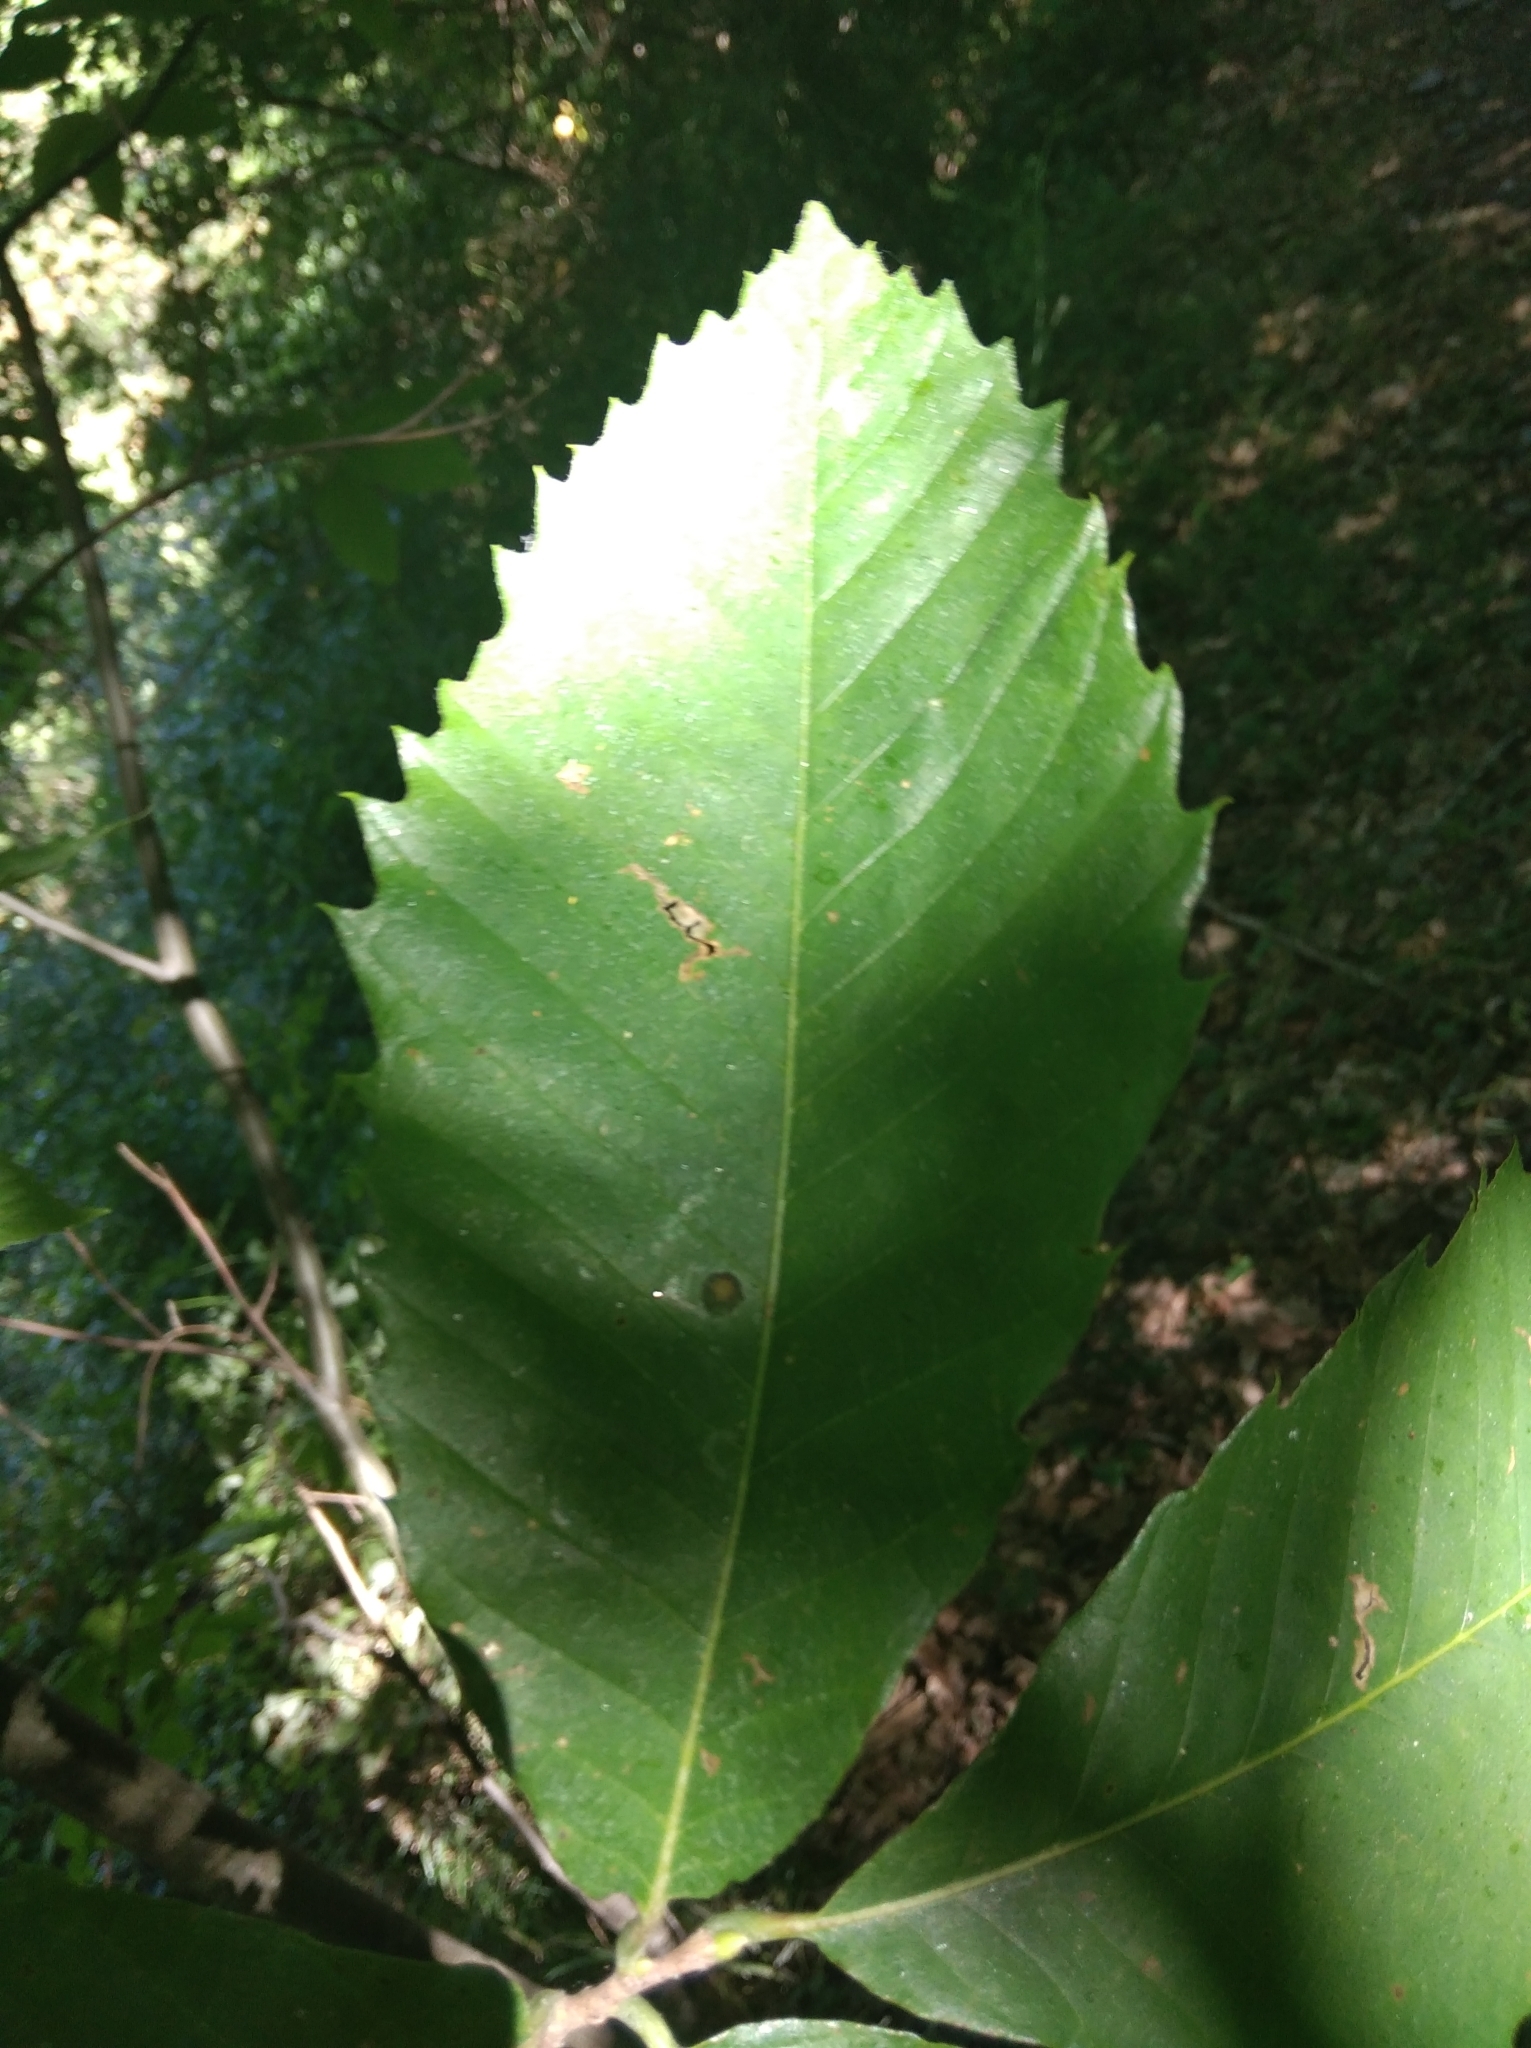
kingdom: Plantae
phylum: Tracheophyta
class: Magnoliopsida
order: Fagales
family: Fagaceae
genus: Castanea
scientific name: Castanea sativa
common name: Sweet chestnut
